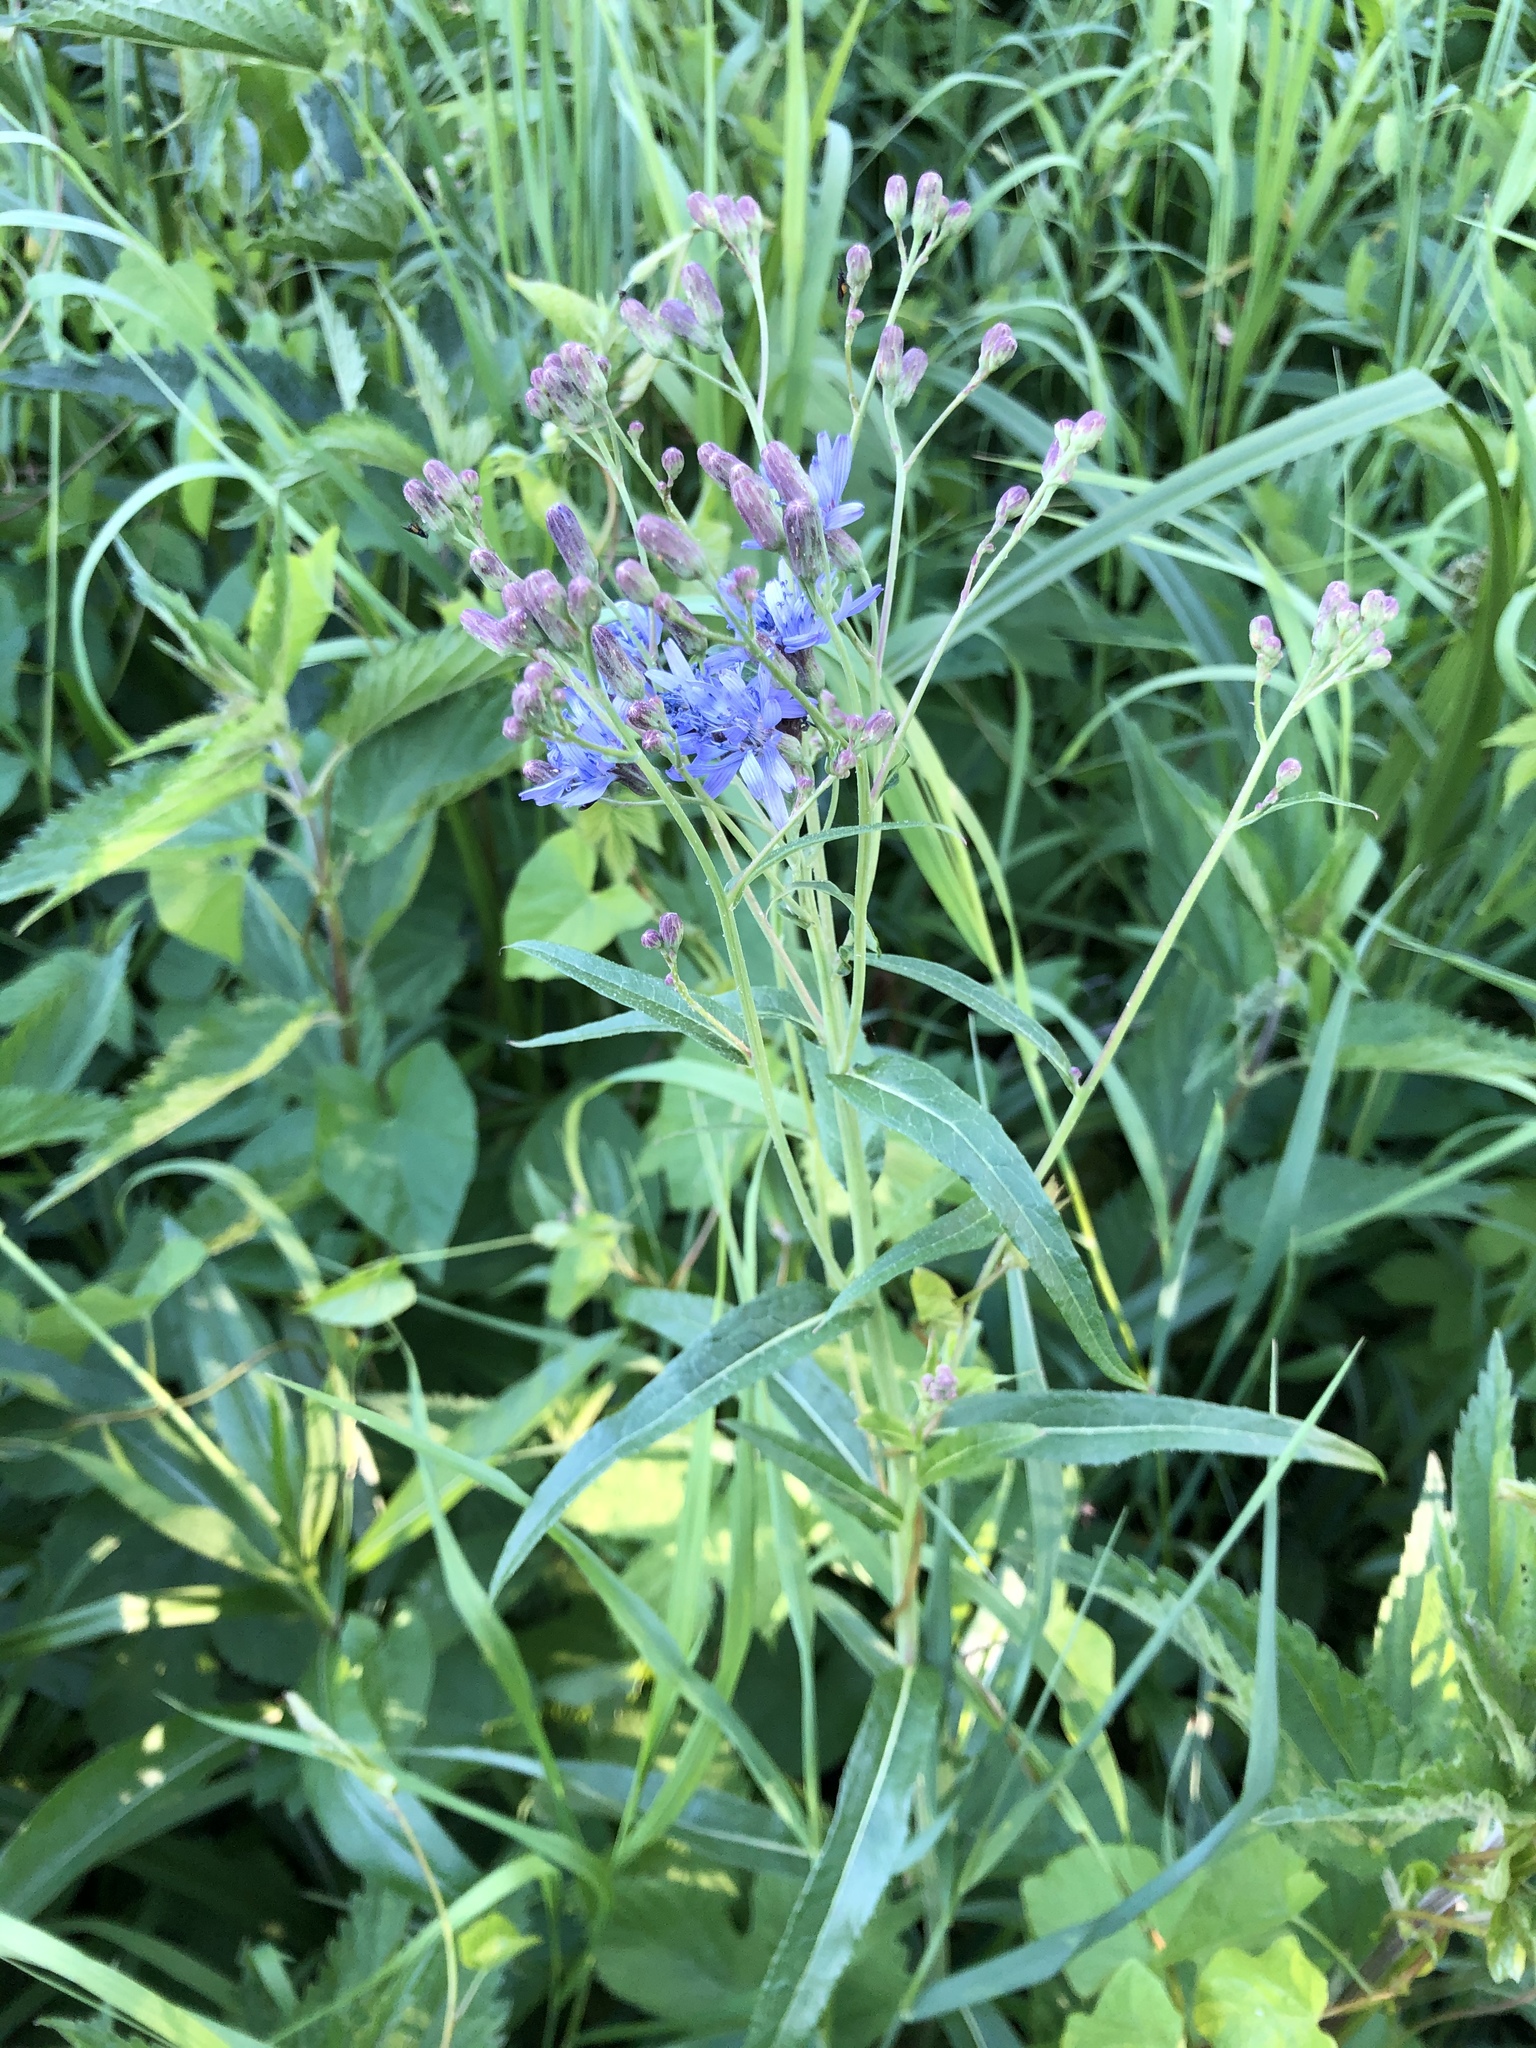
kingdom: Plantae
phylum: Tracheophyta
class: Magnoliopsida
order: Asterales
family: Asteraceae
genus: Lactuca
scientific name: Lactuca sibirica
